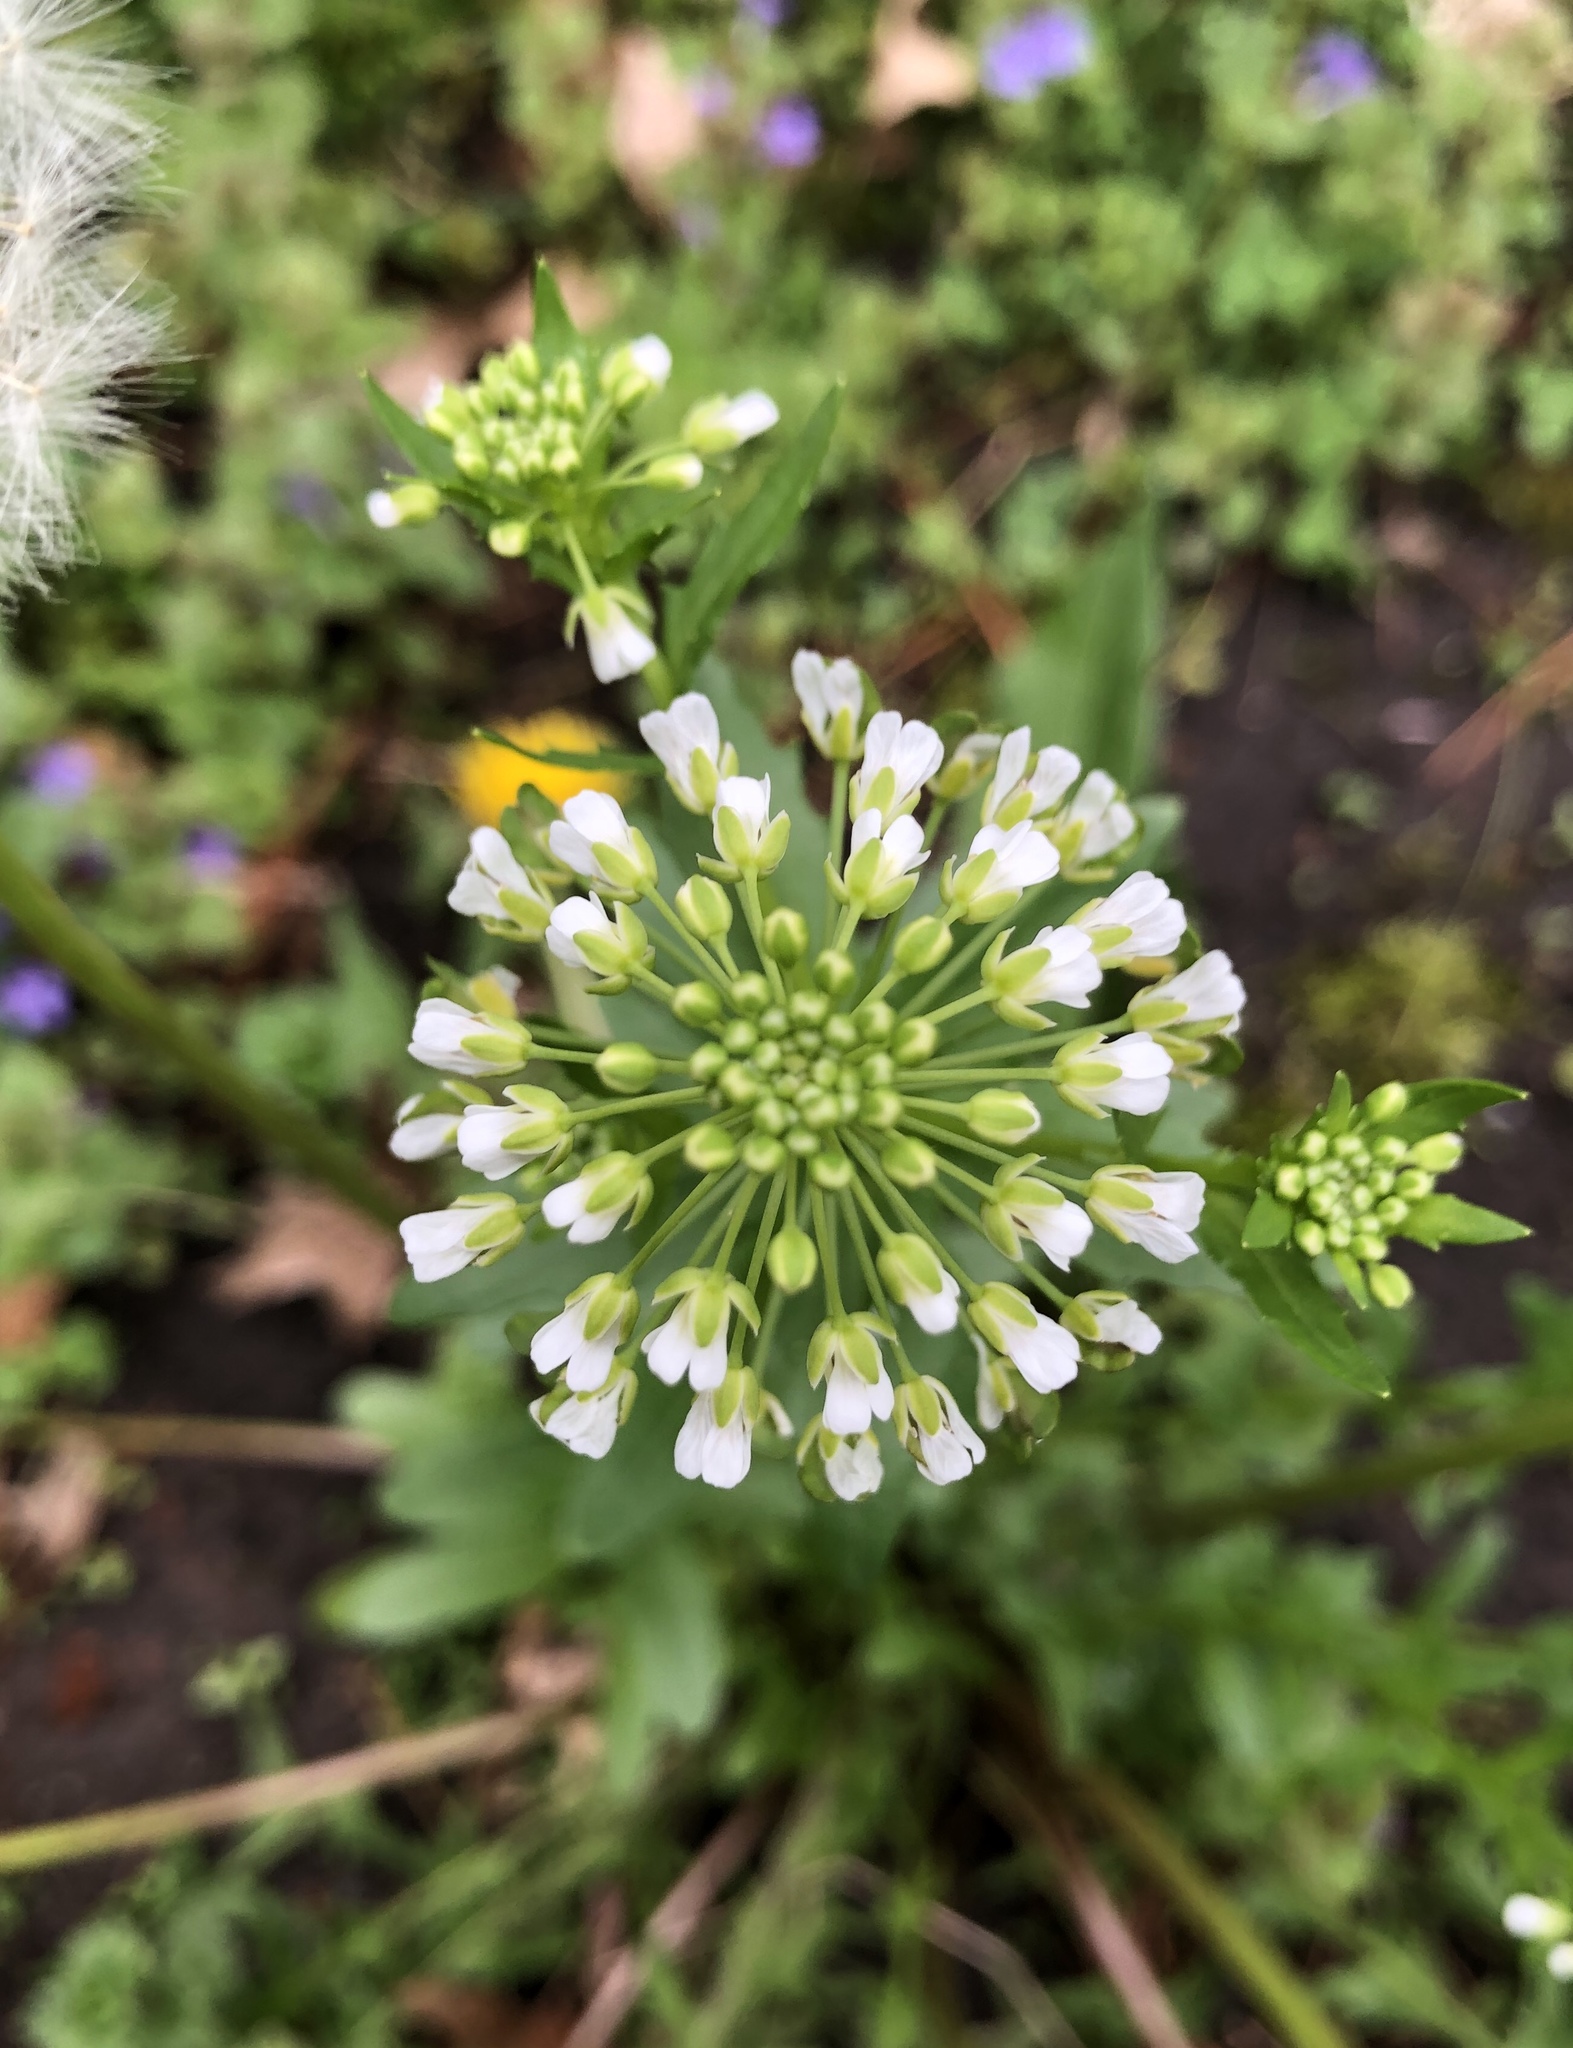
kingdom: Plantae
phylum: Tracheophyta
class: Magnoliopsida
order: Brassicales
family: Brassicaceae
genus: Thlaspi
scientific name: Thlaspi arvense
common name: Field pennycress
